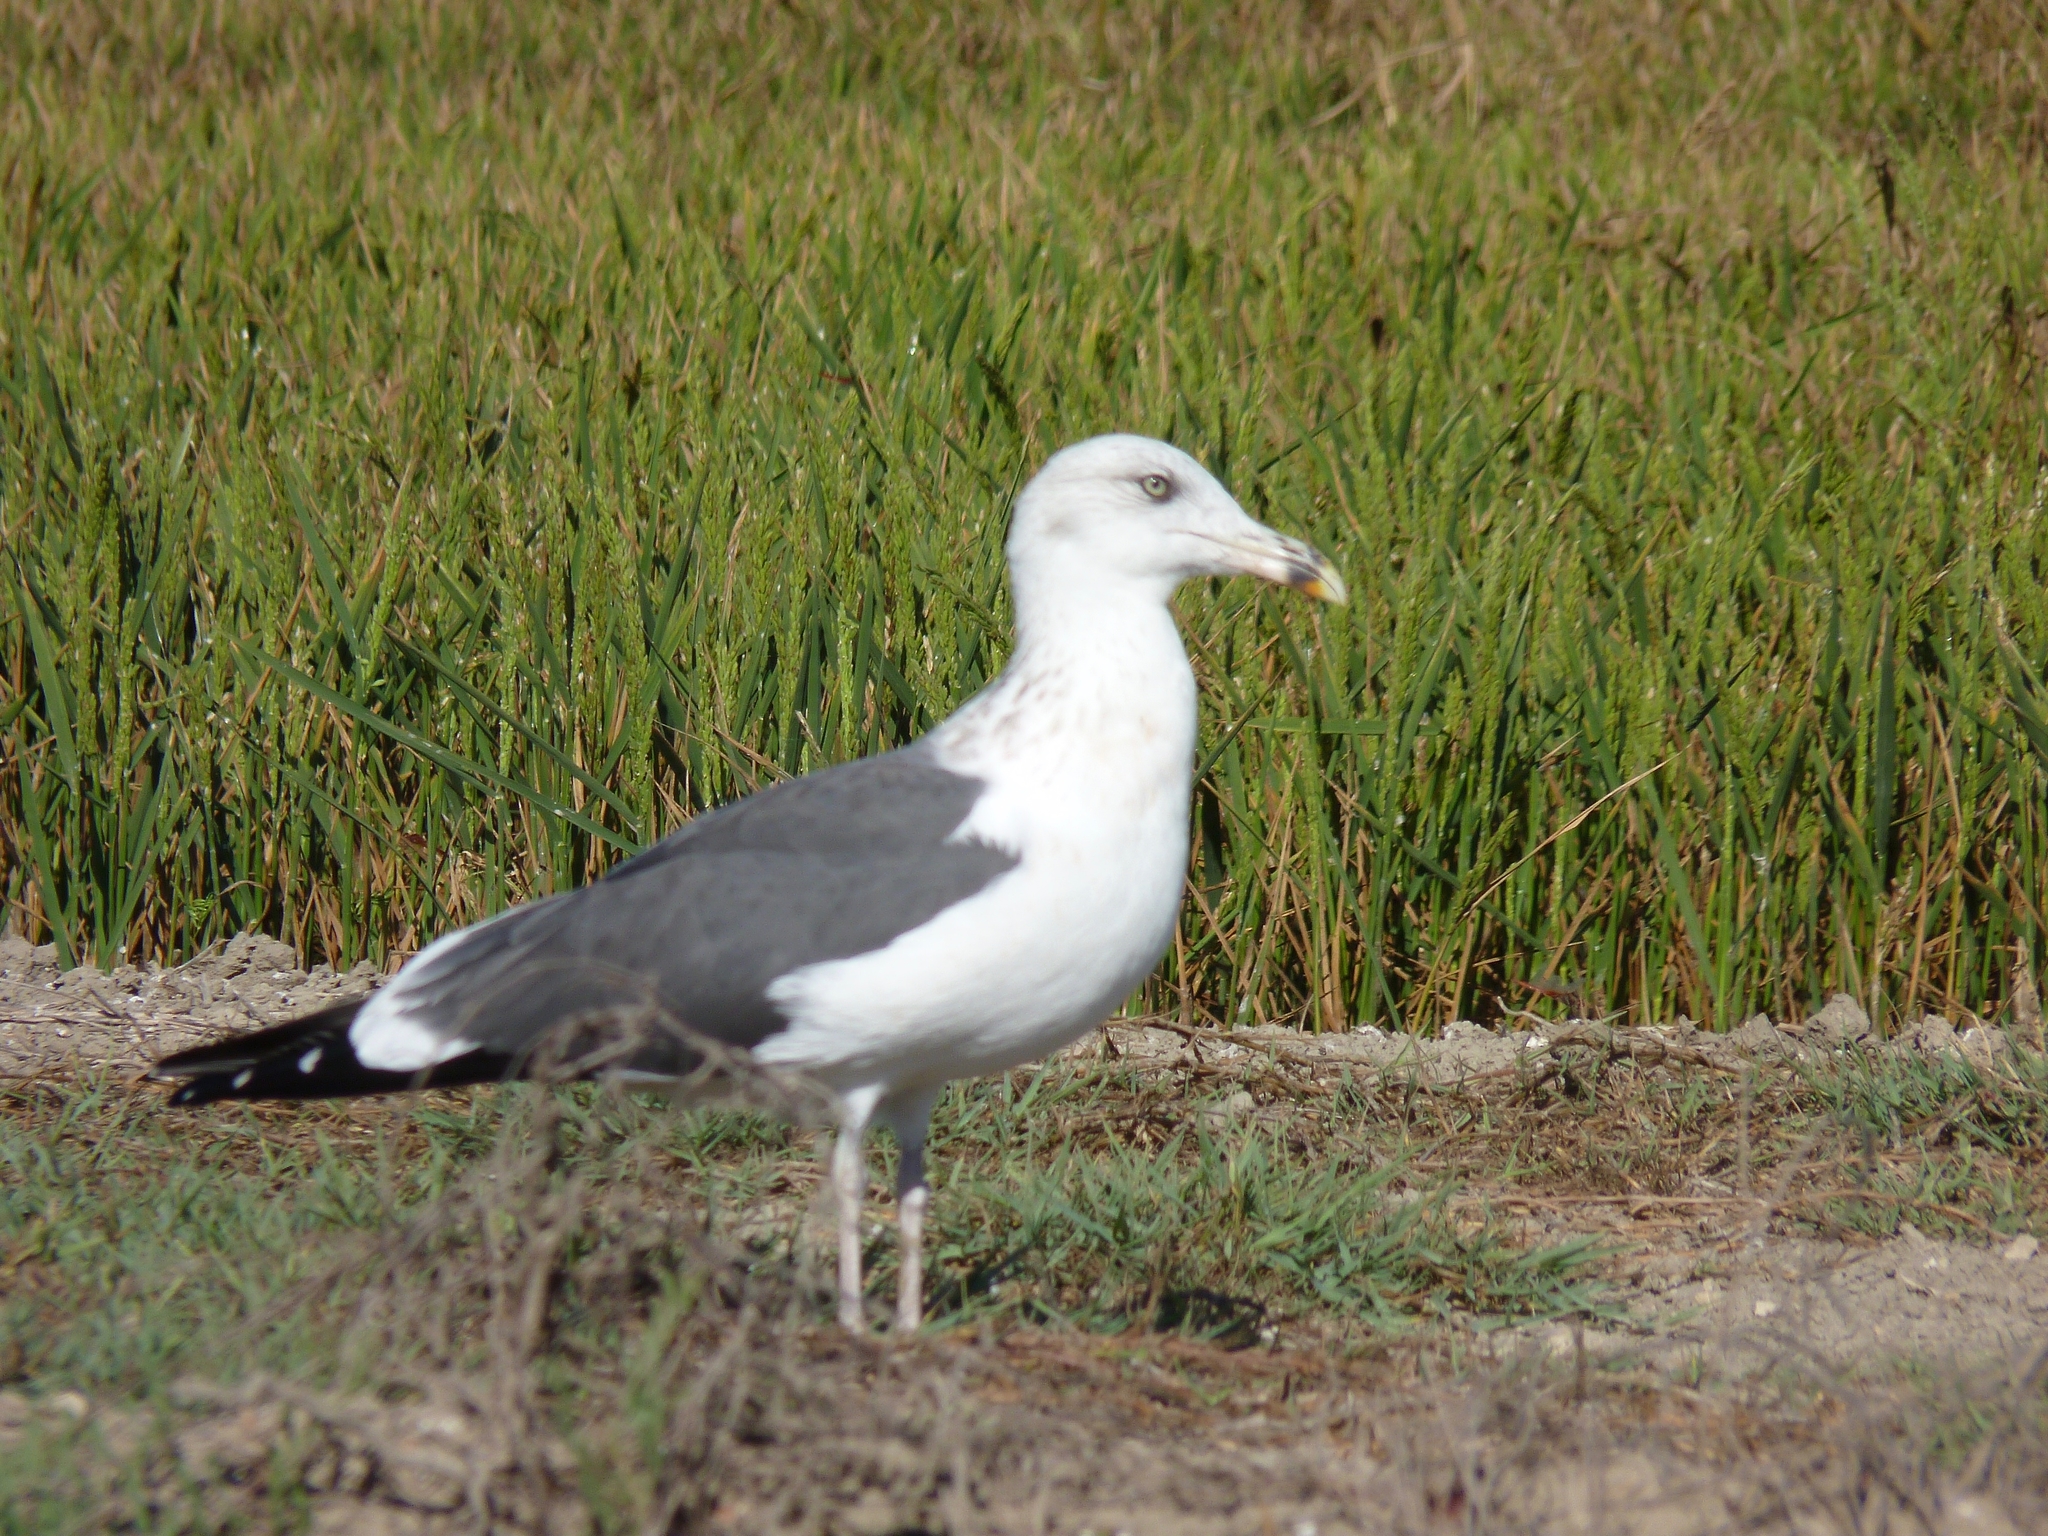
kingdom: Animalia
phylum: Chordata
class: Aves
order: Charadriiformes
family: Laridae
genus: Larus
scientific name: Larus fuscus
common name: Lesser black-backed gull
